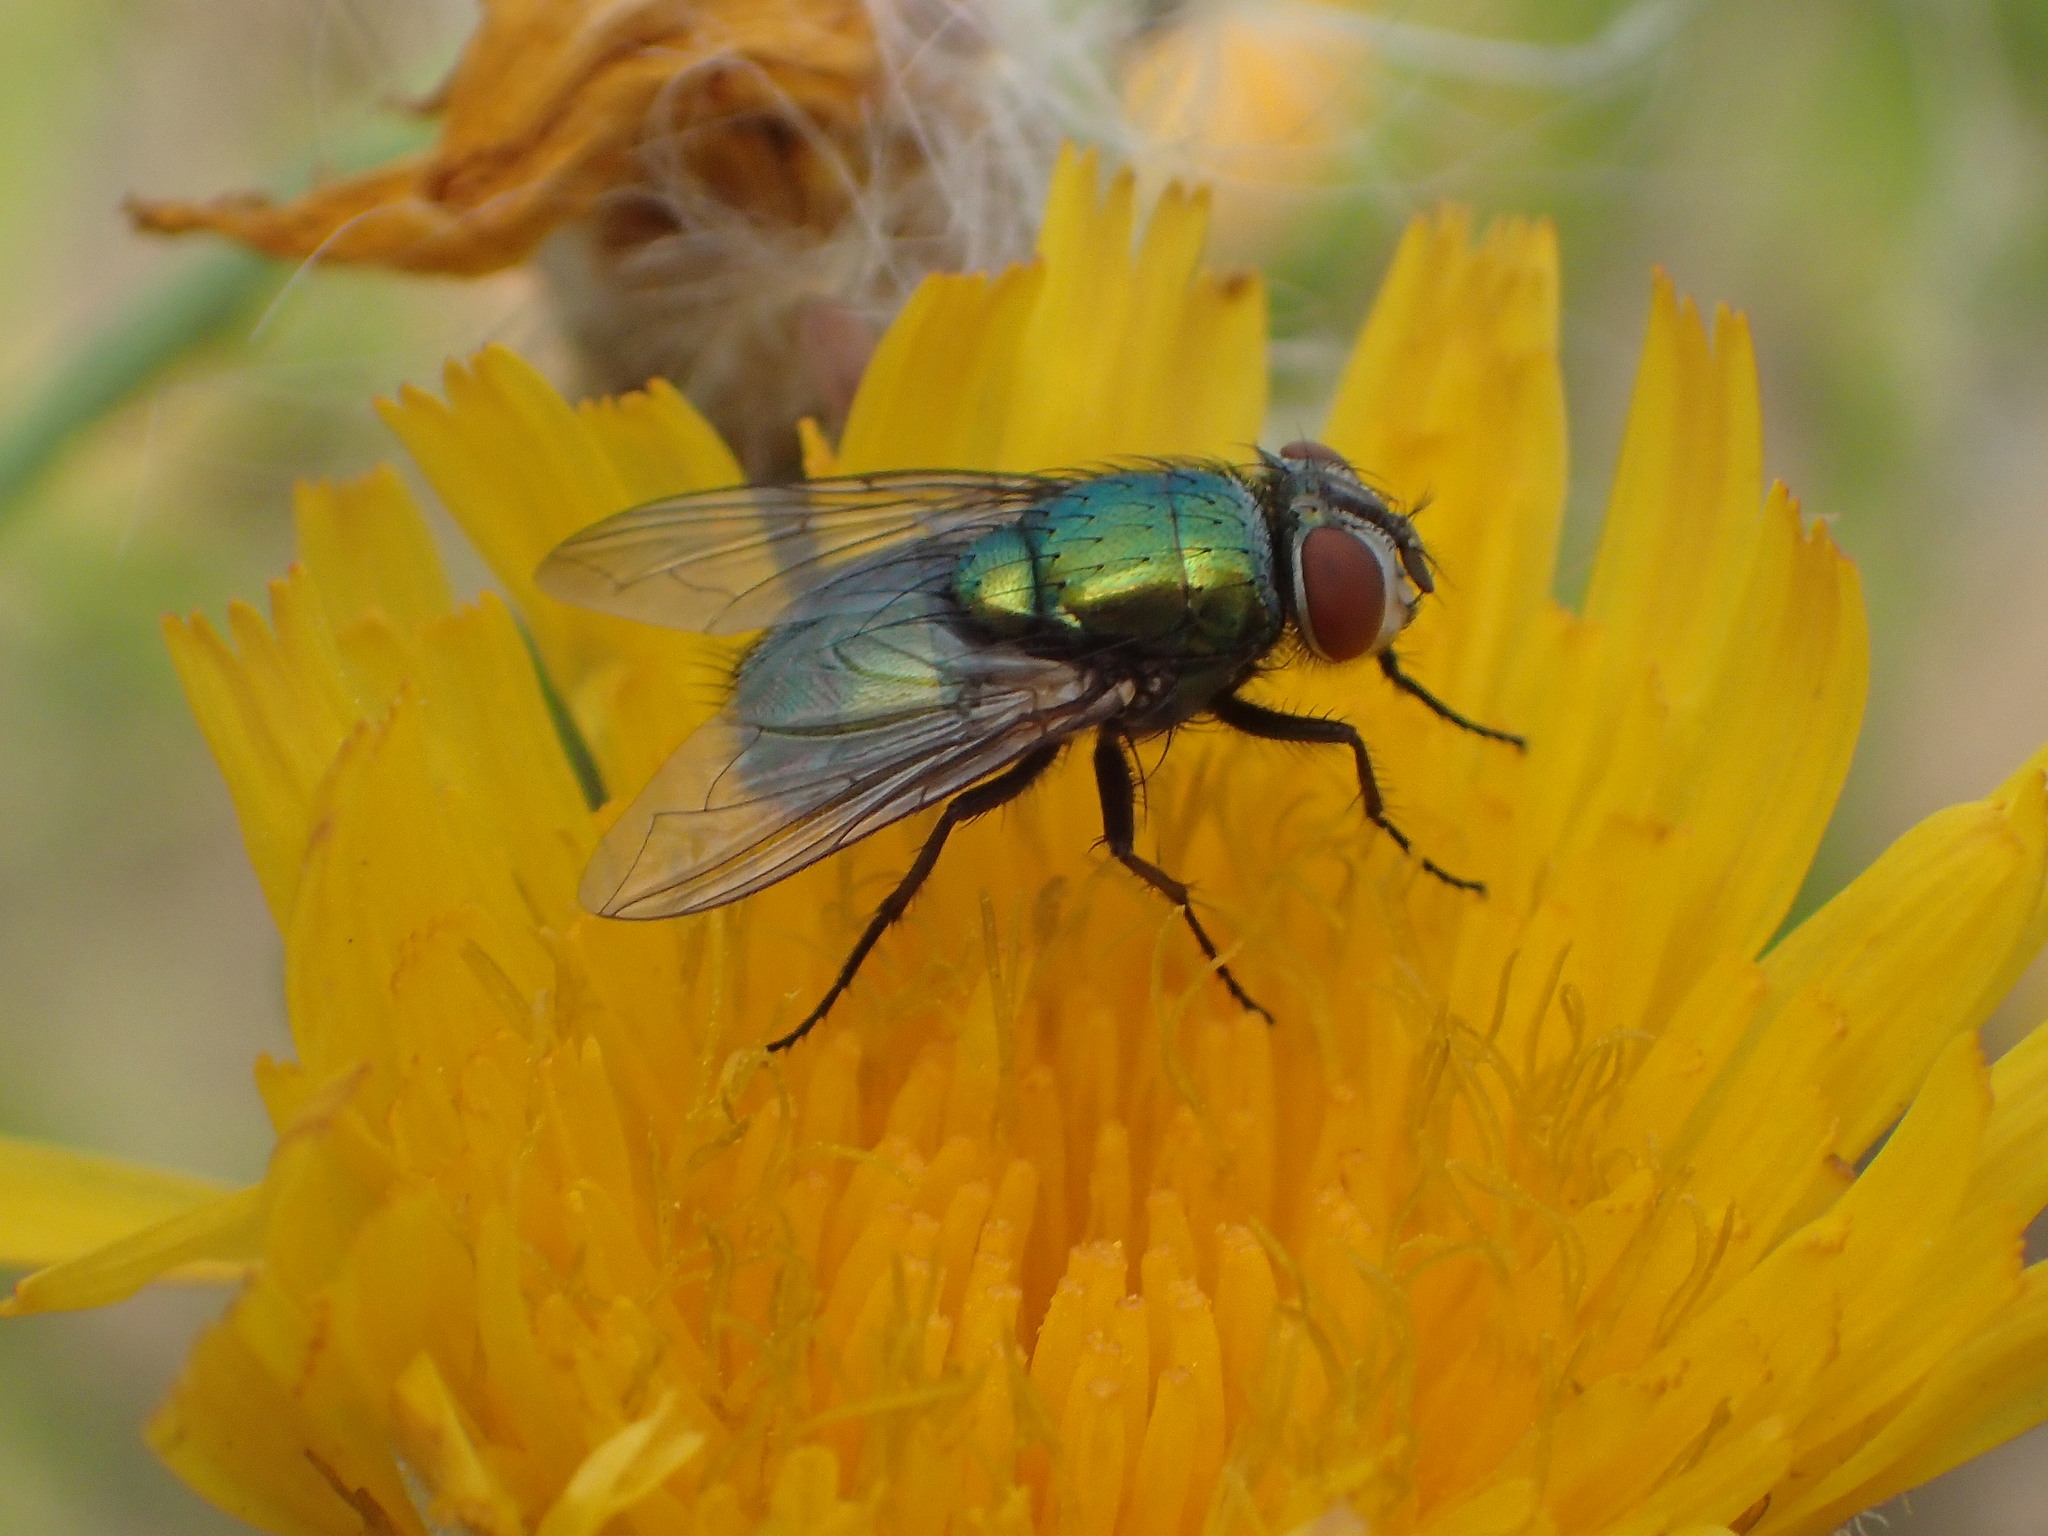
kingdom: Animalia
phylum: Arthropoda
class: Insecta
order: Diptera
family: Calliphoridae
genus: Lucilia
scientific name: Lucilia sericata
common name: Blow fly
